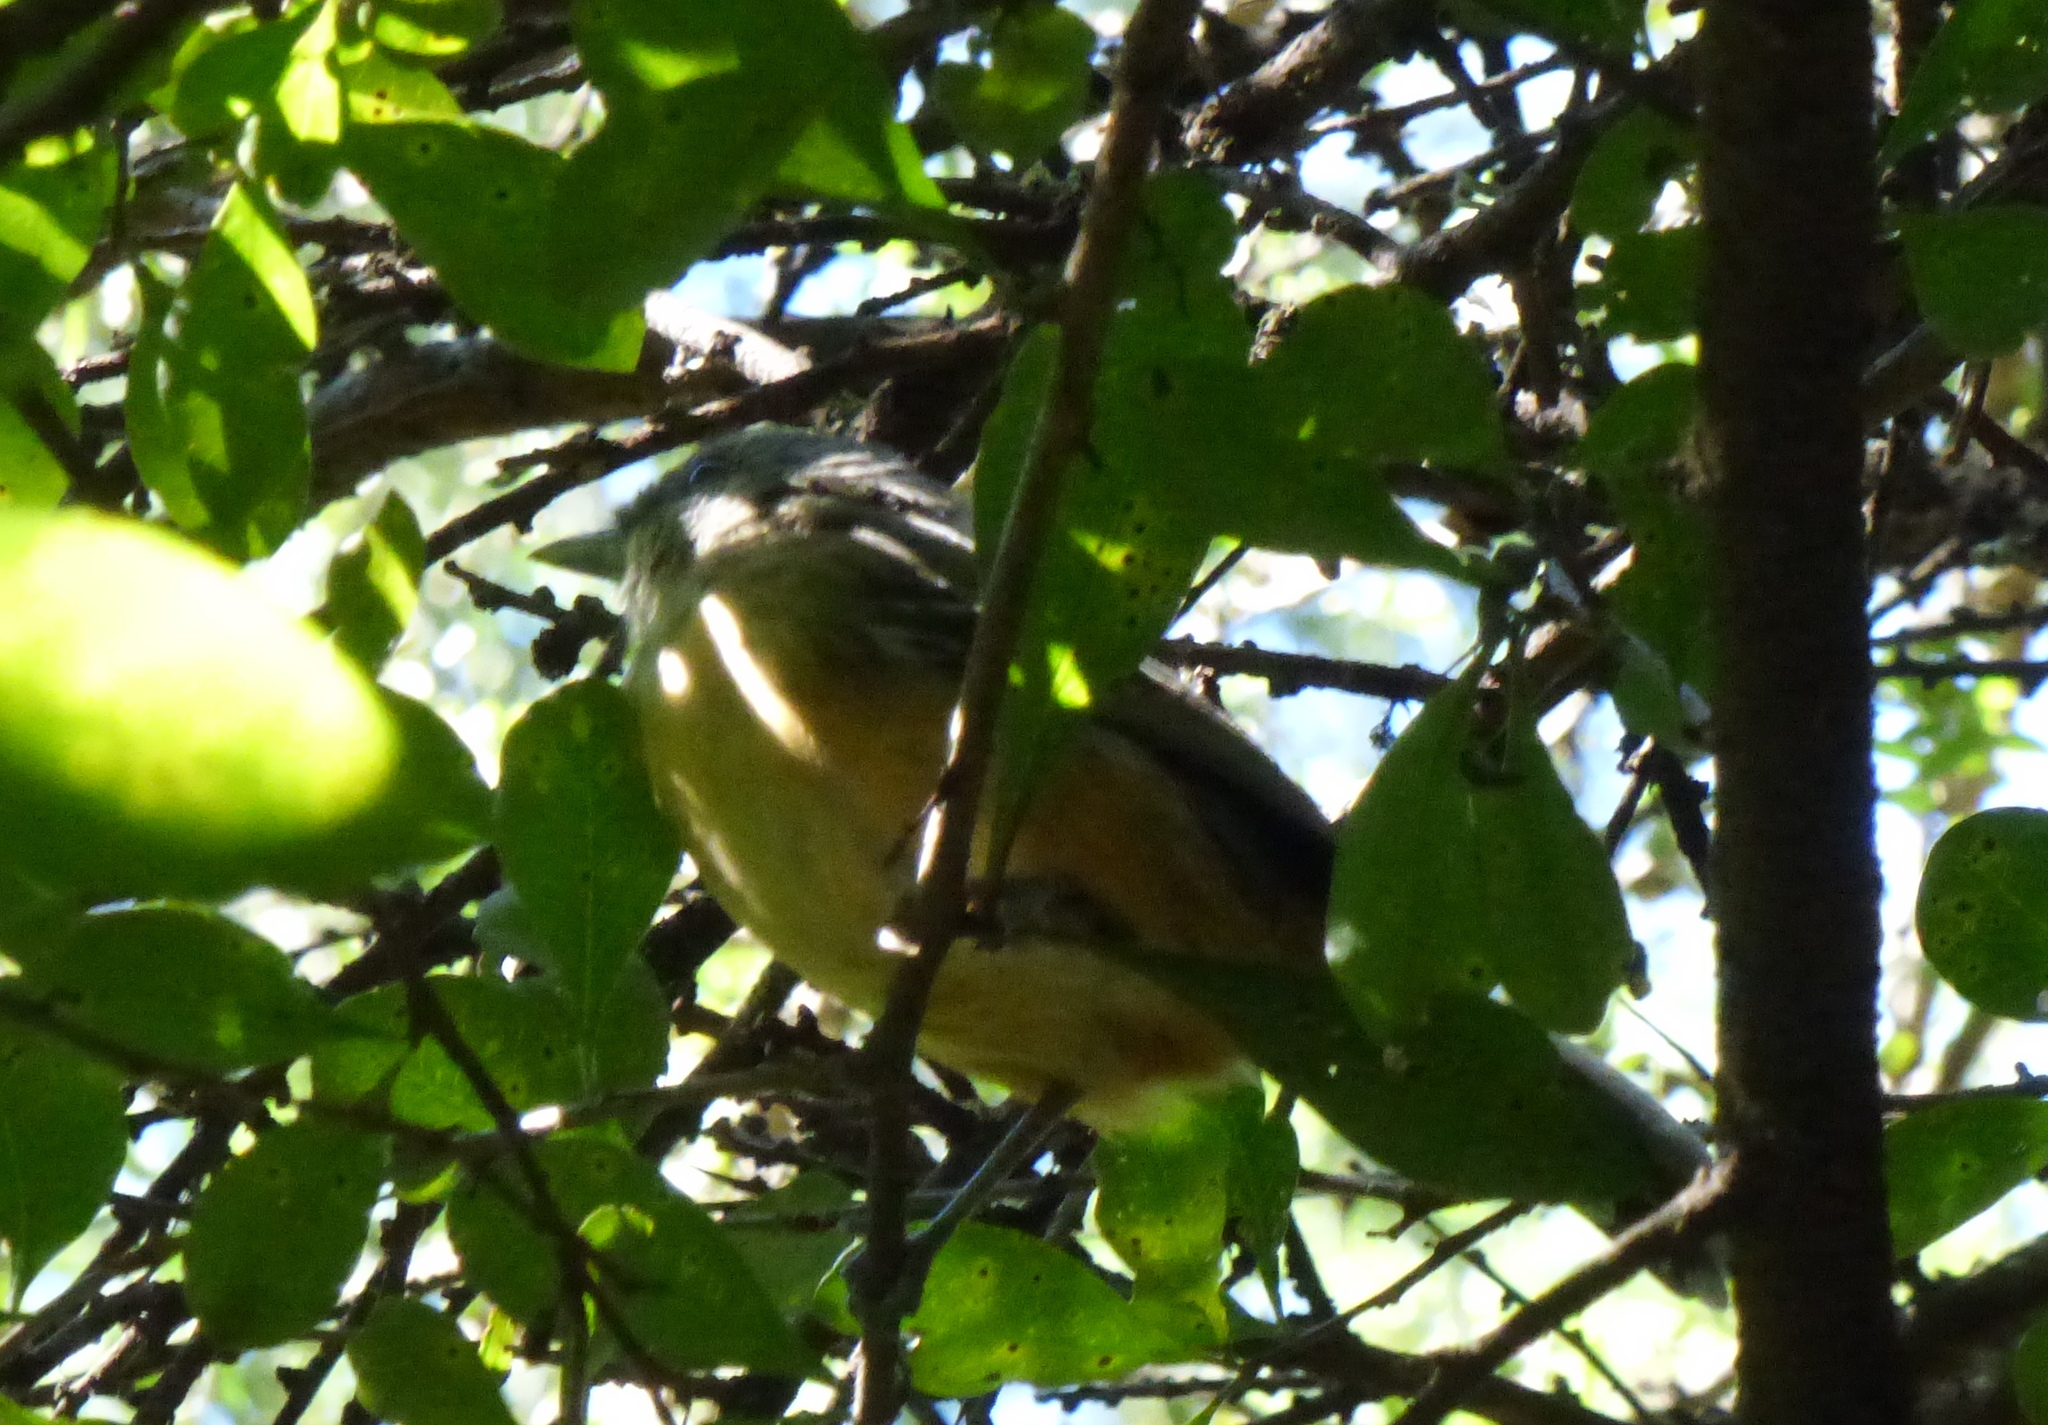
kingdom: Animalia
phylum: Chordata
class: Aves
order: Passeriformes
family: Thamnophilidae
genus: Thamnophilus
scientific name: Thamnophilus caerulescens
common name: Variable antshrike
